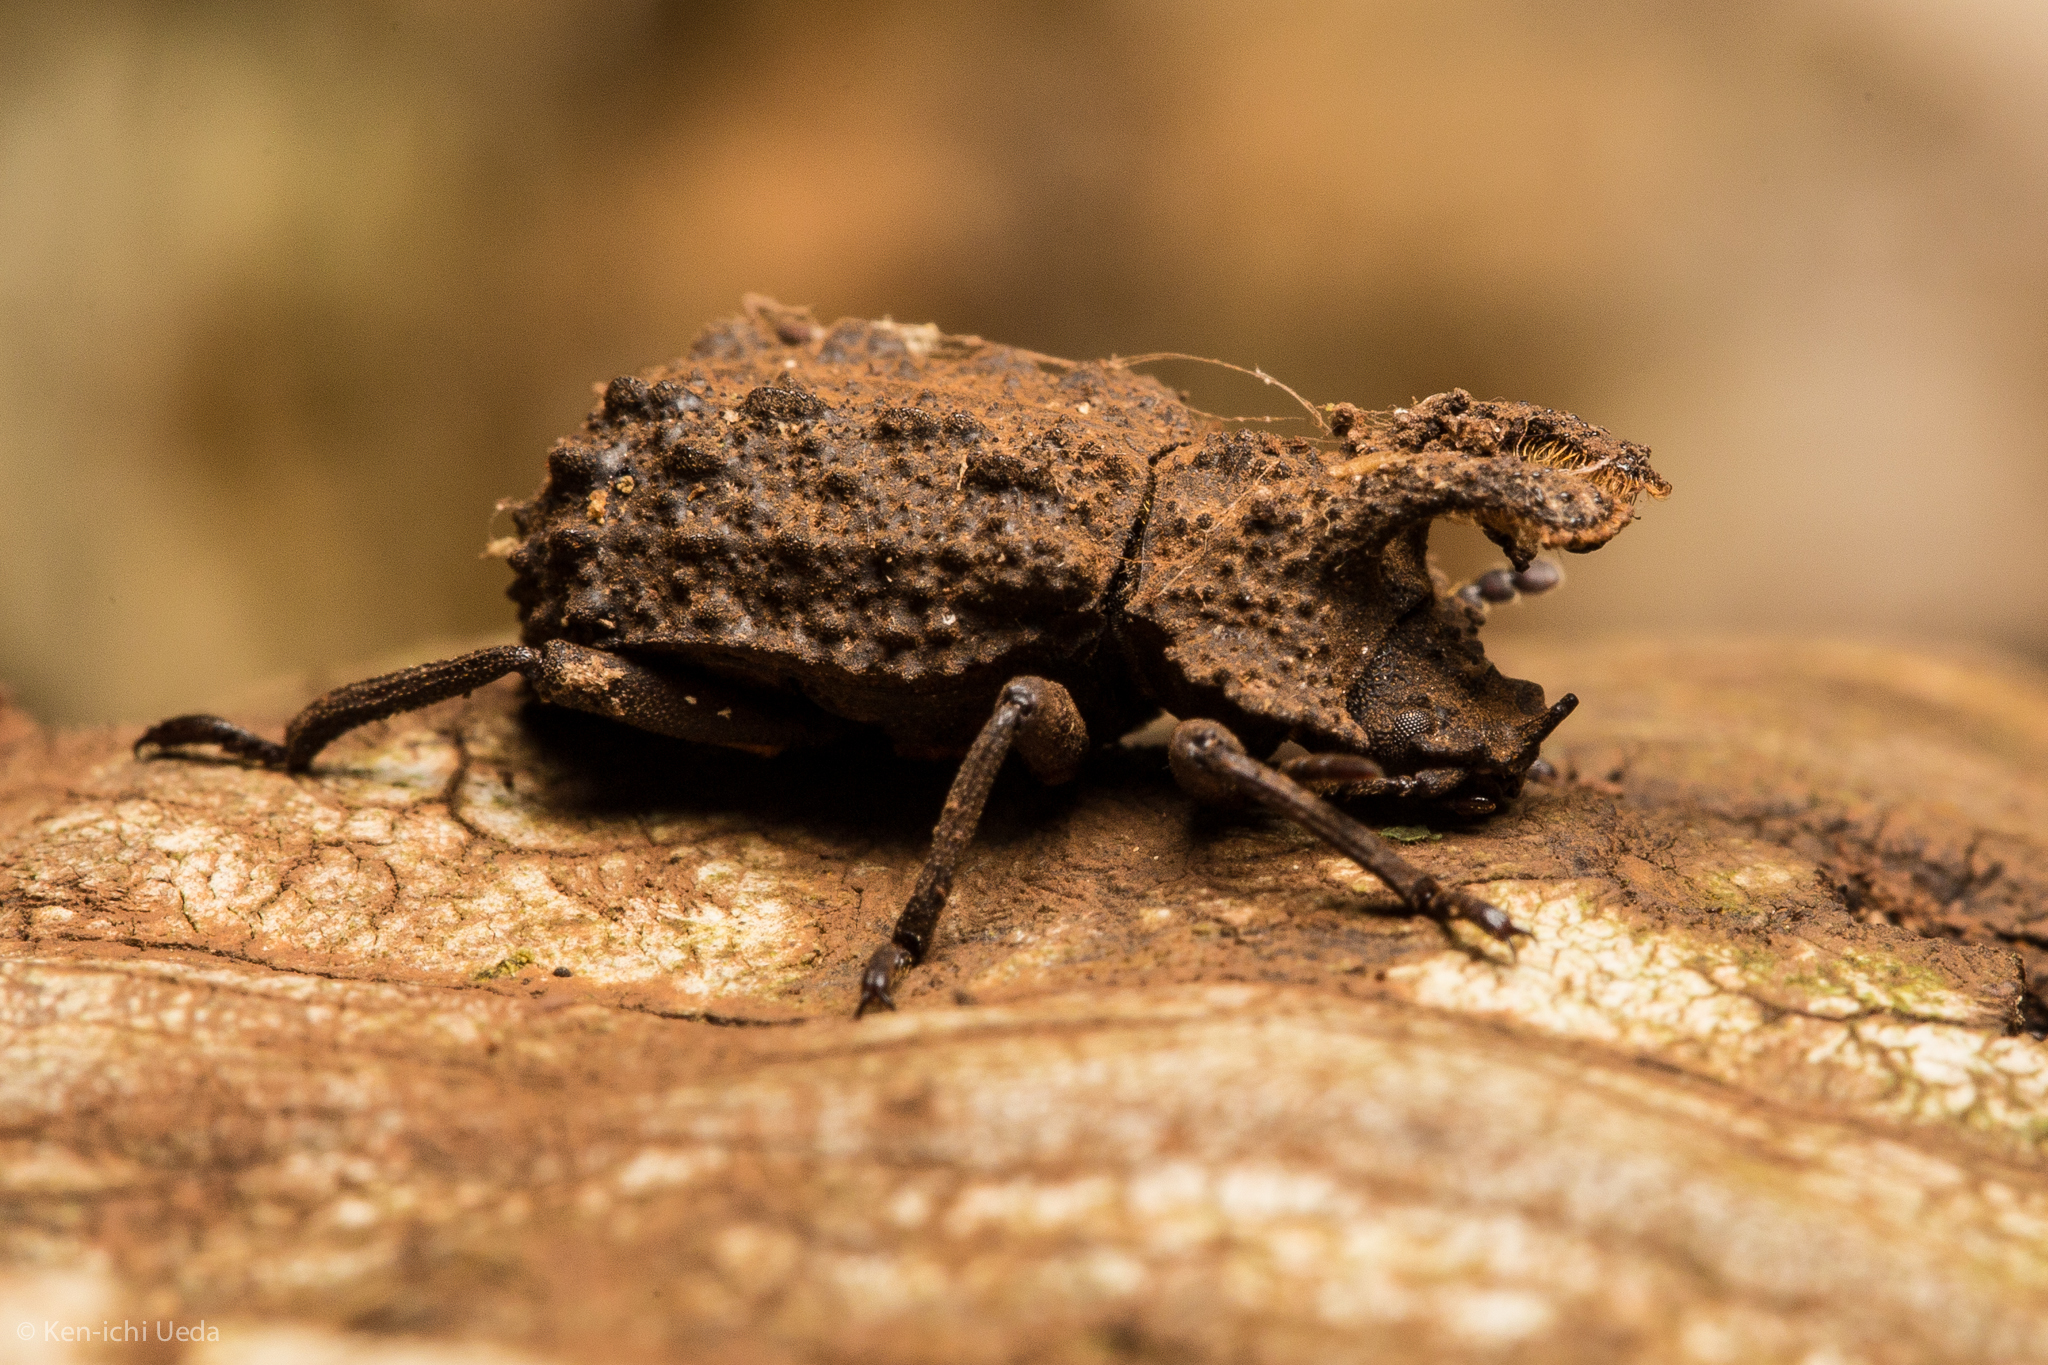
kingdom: Animalia
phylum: Arthropoda
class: Insecta
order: Coleoptera
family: Tenebrionidae
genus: Gnatocerus
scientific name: Gnatocerus cornutus
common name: Broad-horned flour beetle
